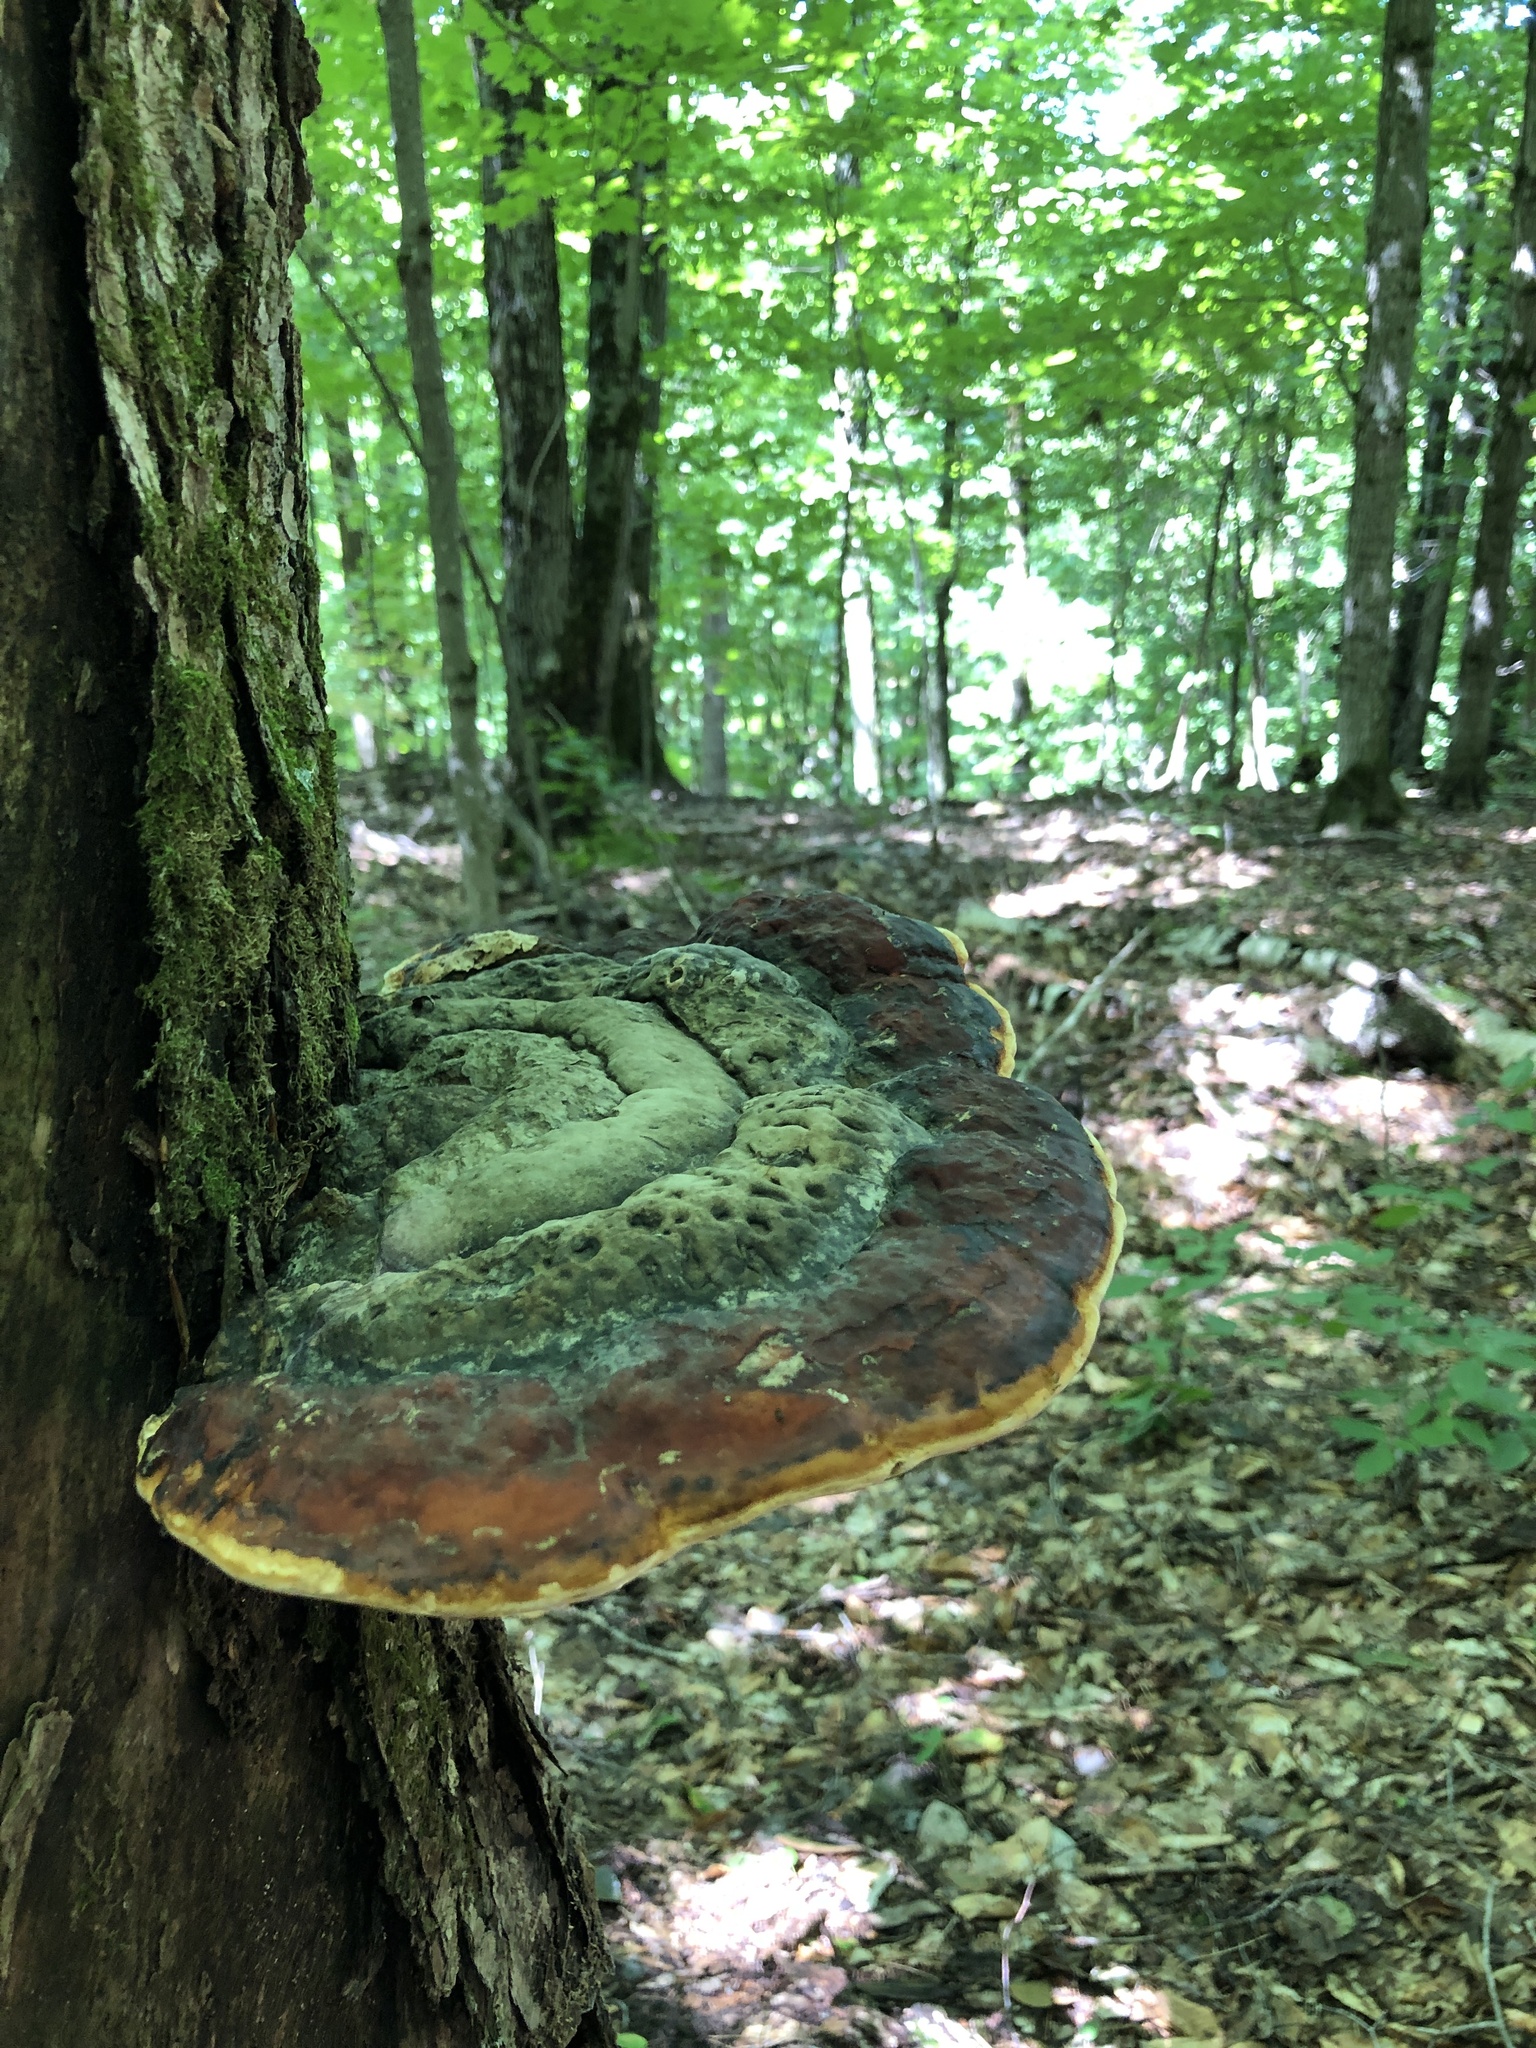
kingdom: Fungi
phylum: Basidiomycota
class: Agaricomycetes
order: Polyporales
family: Fomitopsidaceae
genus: Fomitopsis
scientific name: Fomitopsis mounceae
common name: Northern red belt
